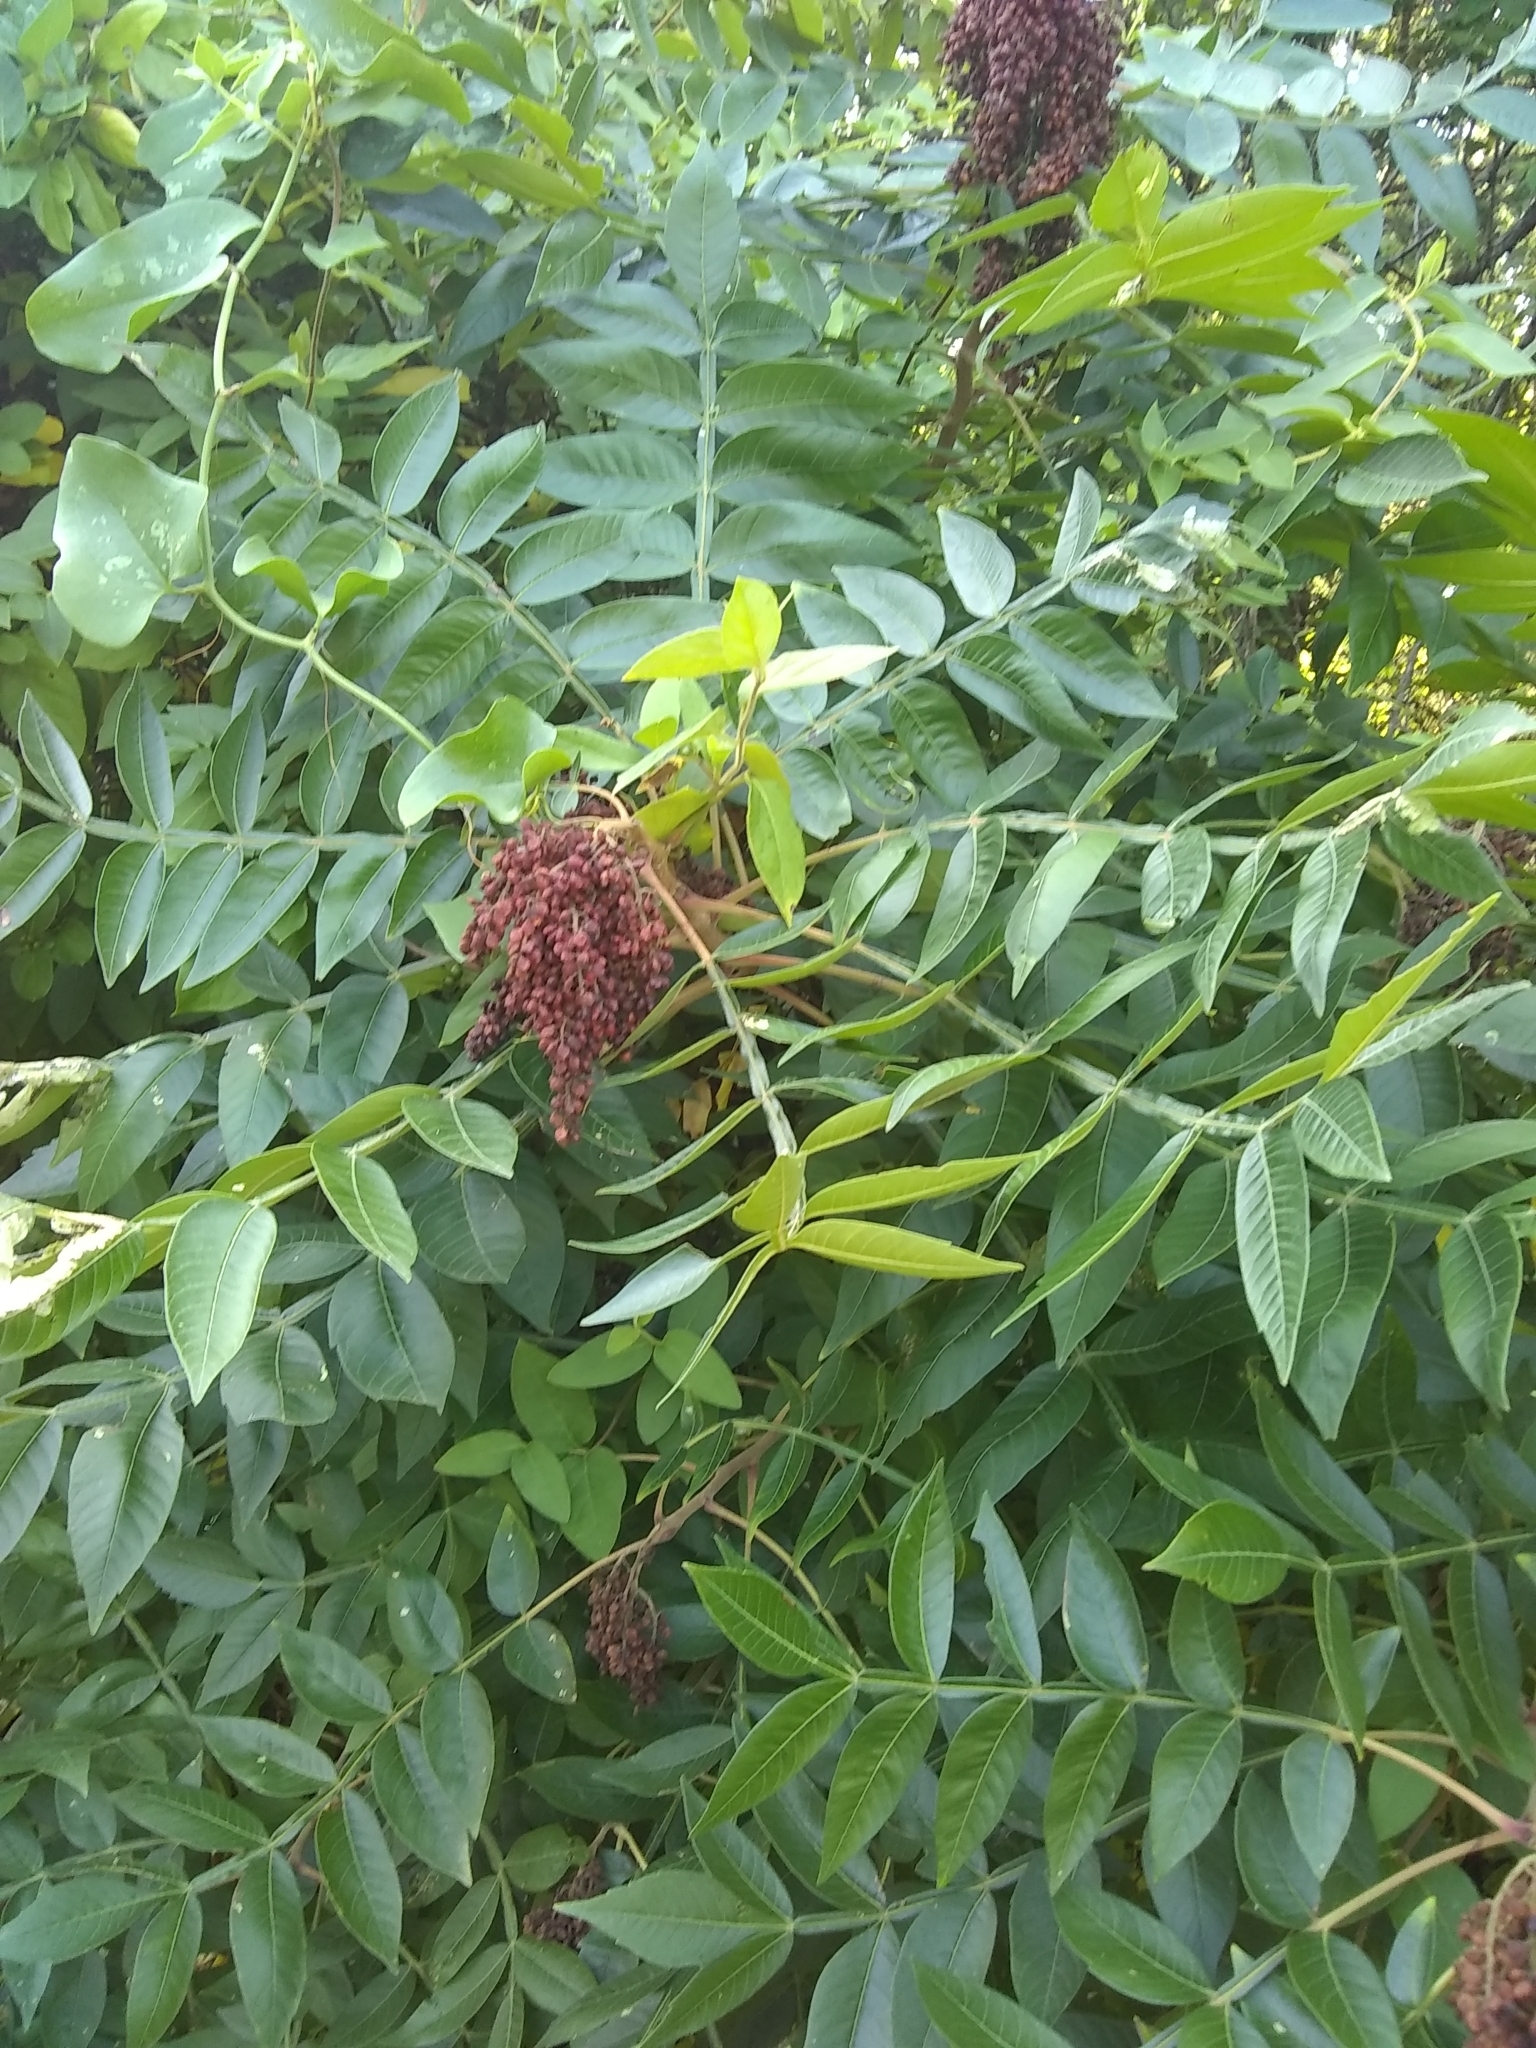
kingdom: Plantae
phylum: Tracheophyta
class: Magnoliopsida
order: Sapindales
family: Anacardiaceae
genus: Rhus
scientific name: Rhus copallina
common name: Shining sumac
